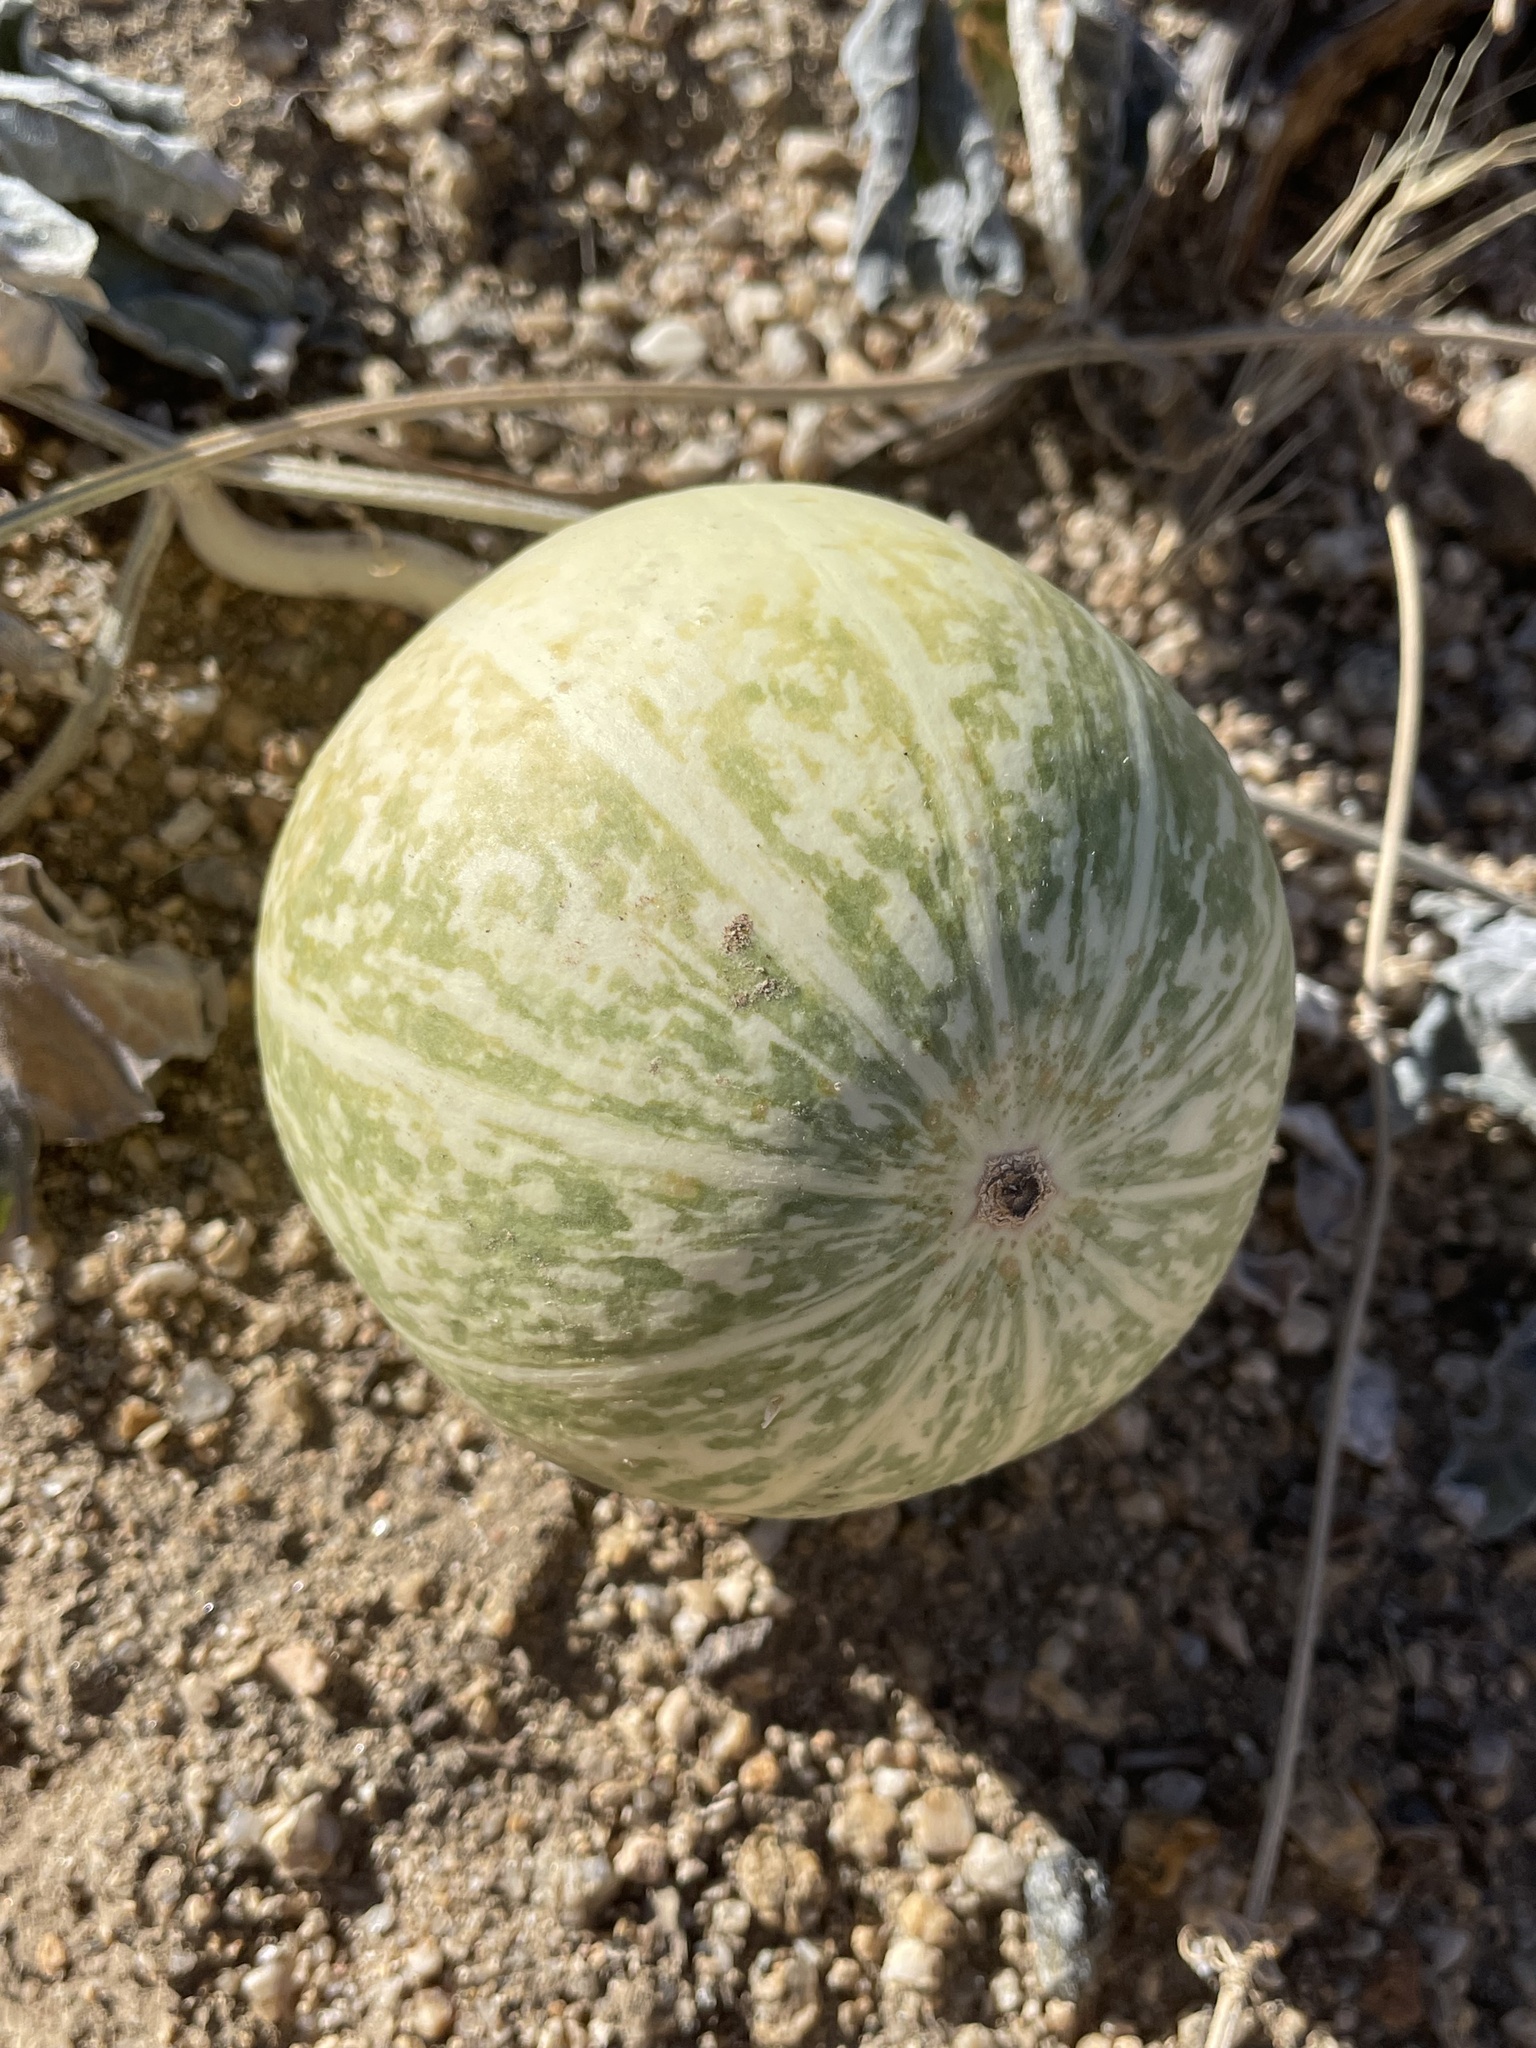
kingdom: Plantae
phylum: Tracheophyta
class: Magnoliopsida
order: Cucurbitales
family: Cucurbitaceae
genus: Cucurbita
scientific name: Cucurbita palmata
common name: Coyote-melon
